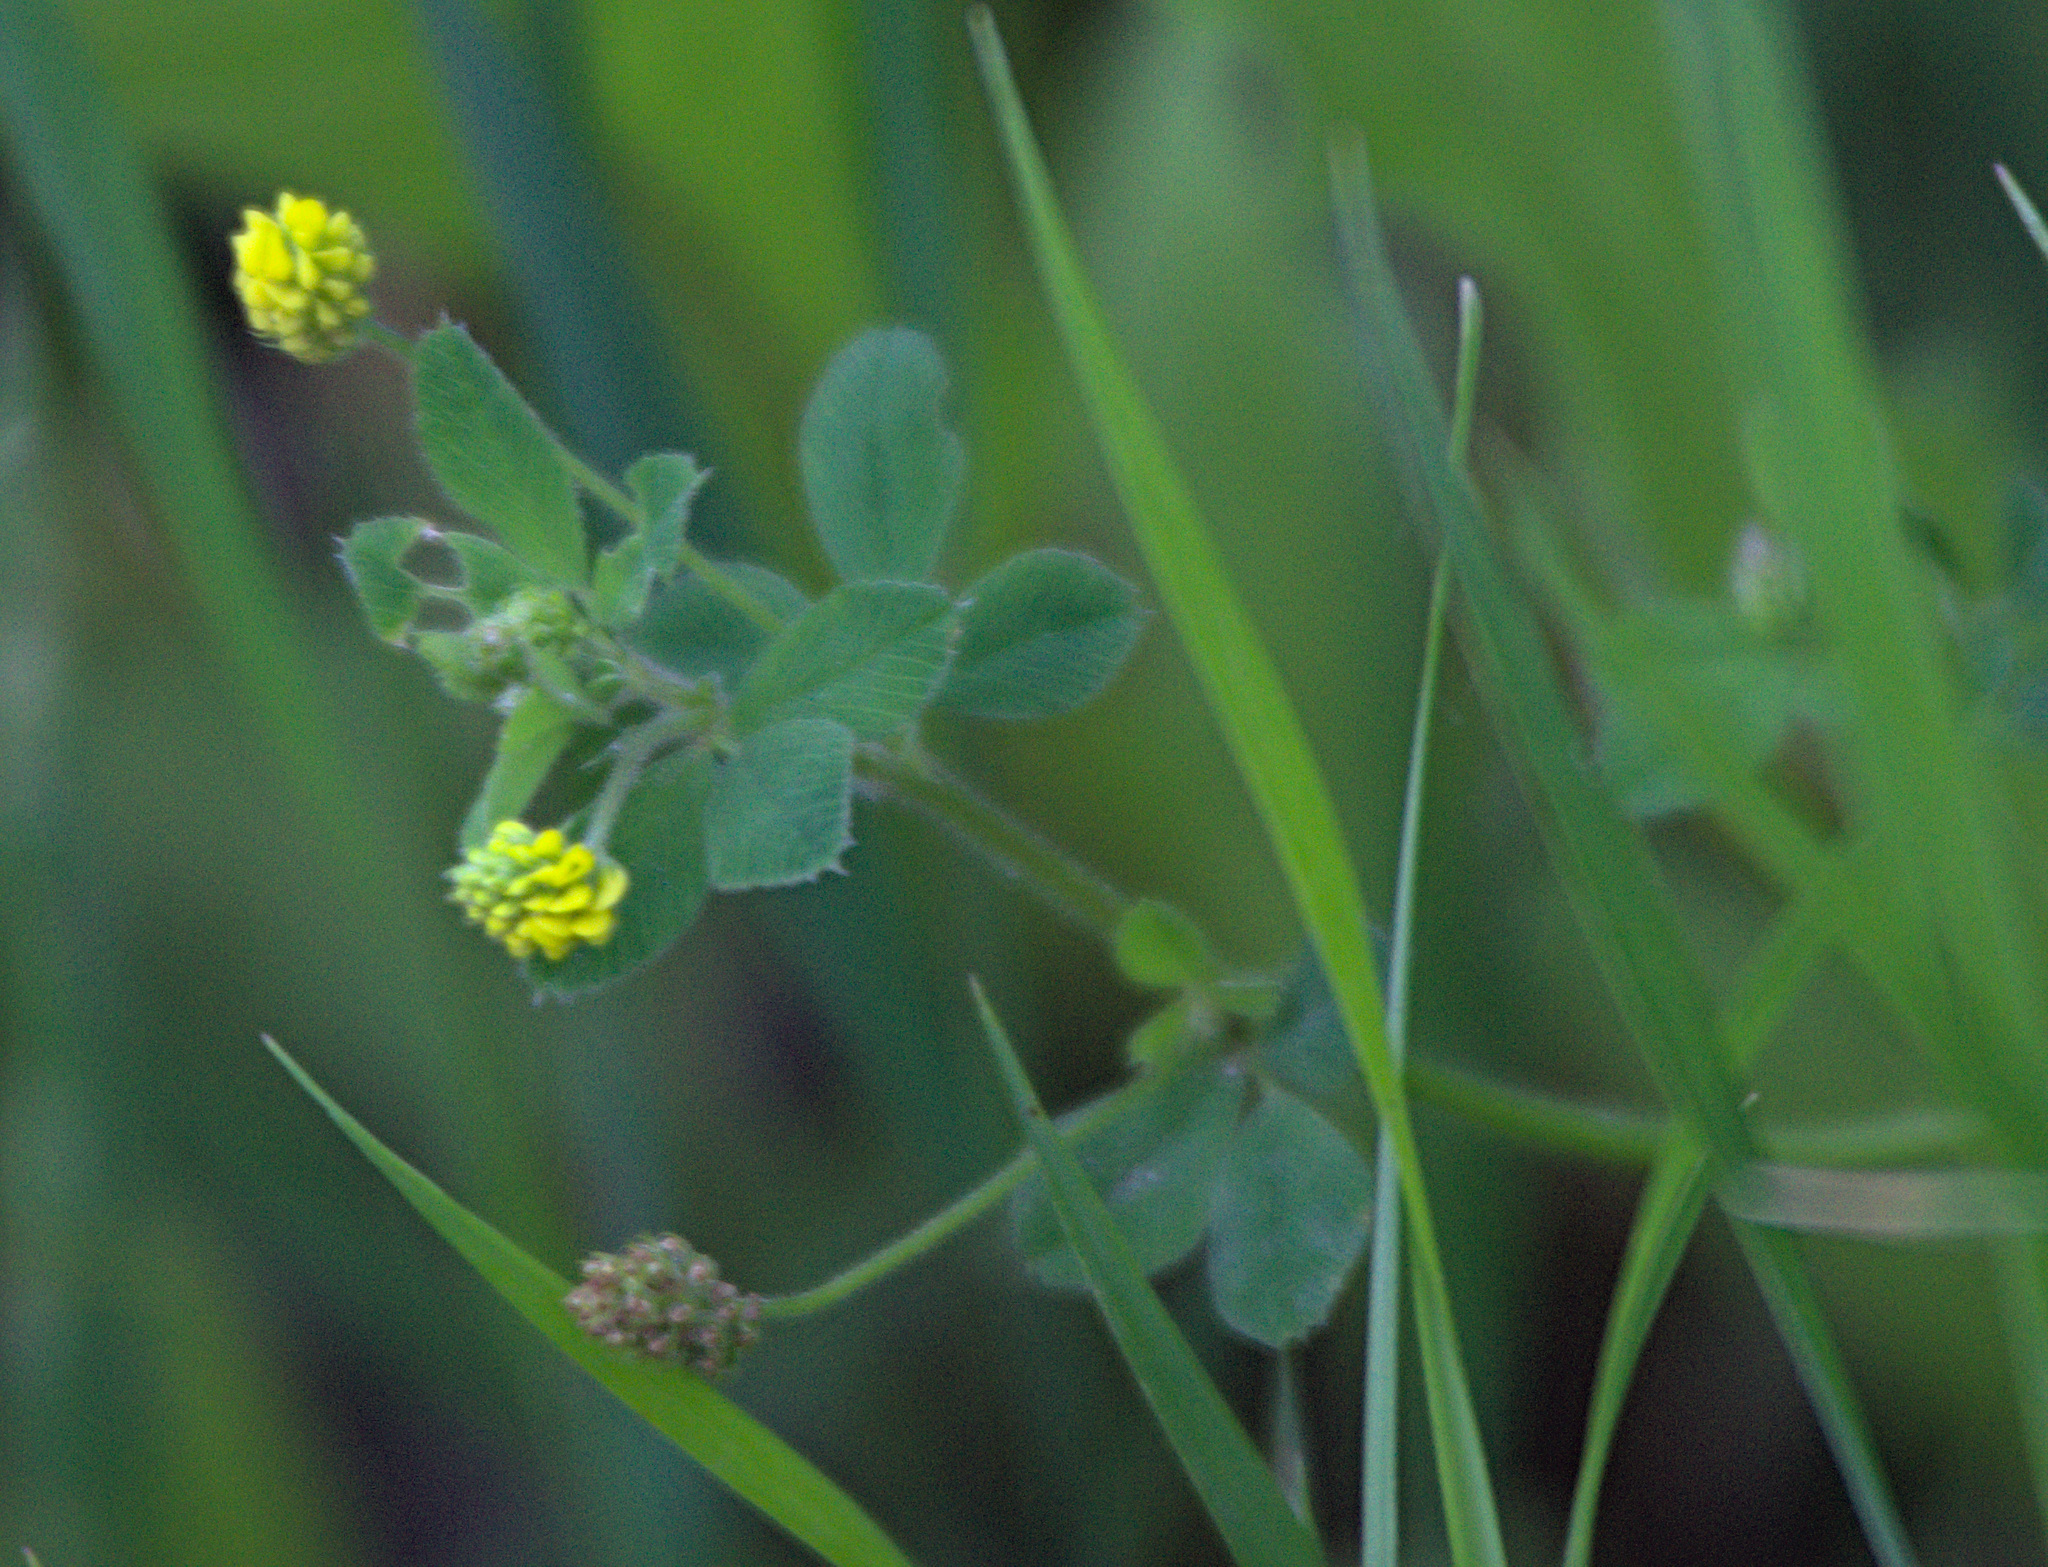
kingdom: Plantae
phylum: Tracheophyta
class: Magnoliopsida
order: Fabales
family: Fabaceae
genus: Medicago
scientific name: Medicago lupulina
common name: Black medick
